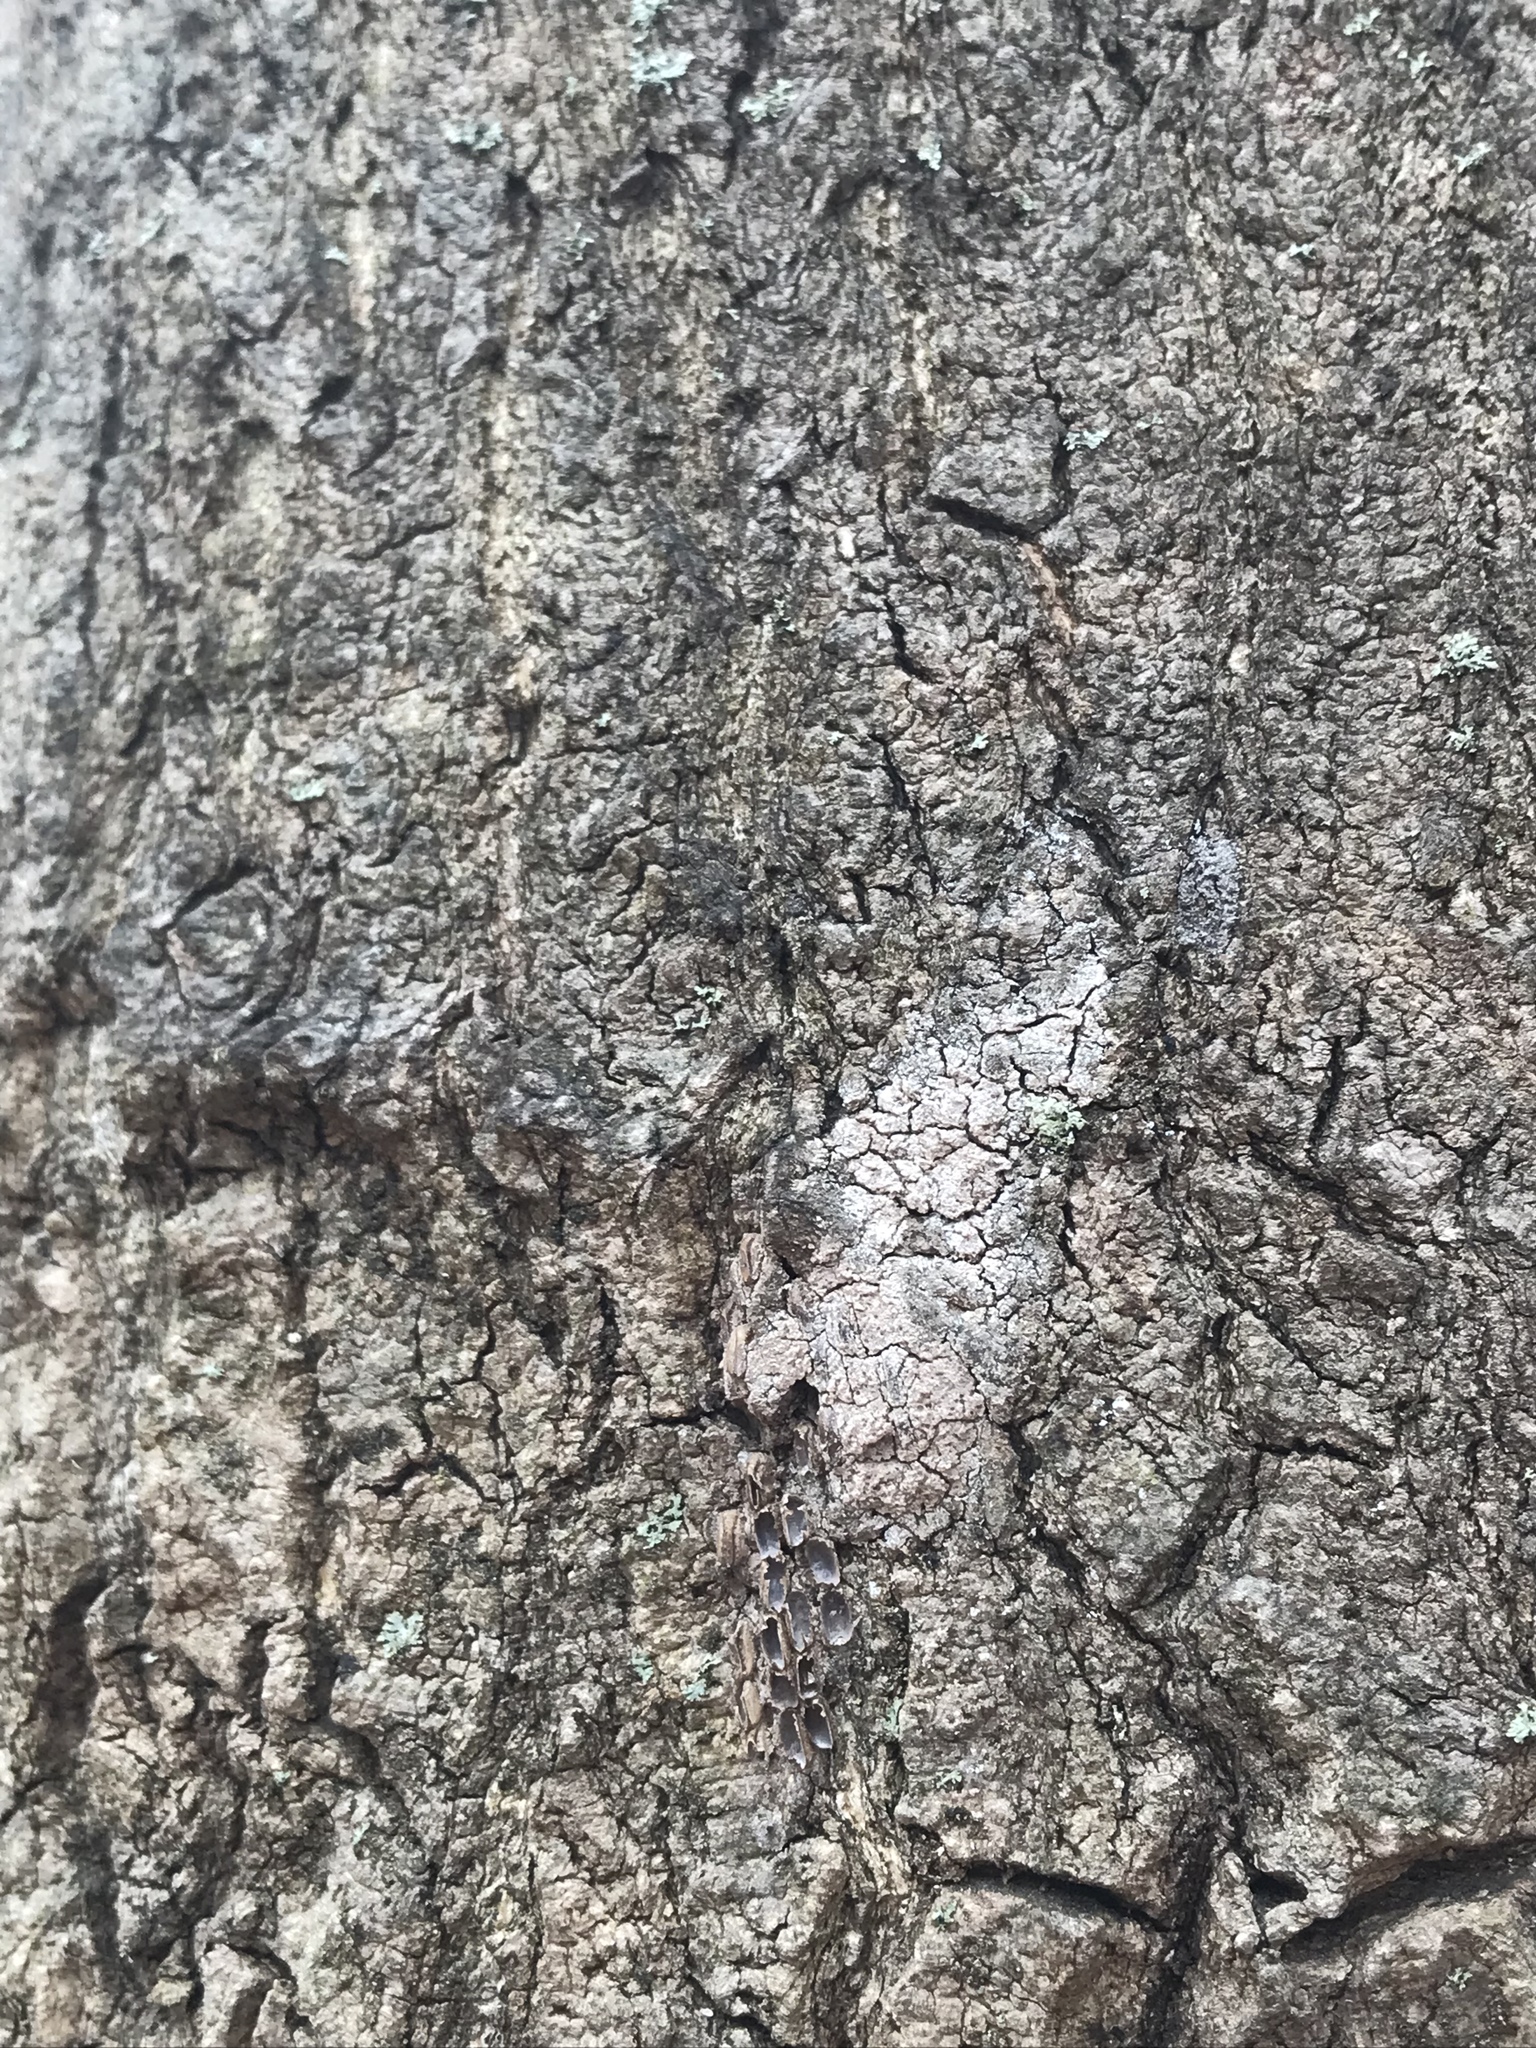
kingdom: Animalia
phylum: Arthropoda
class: Insecta
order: Hemiptera
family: Fulgoridae
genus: Lycorma
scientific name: Lycorma delicatula
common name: Spotted lanternfly
